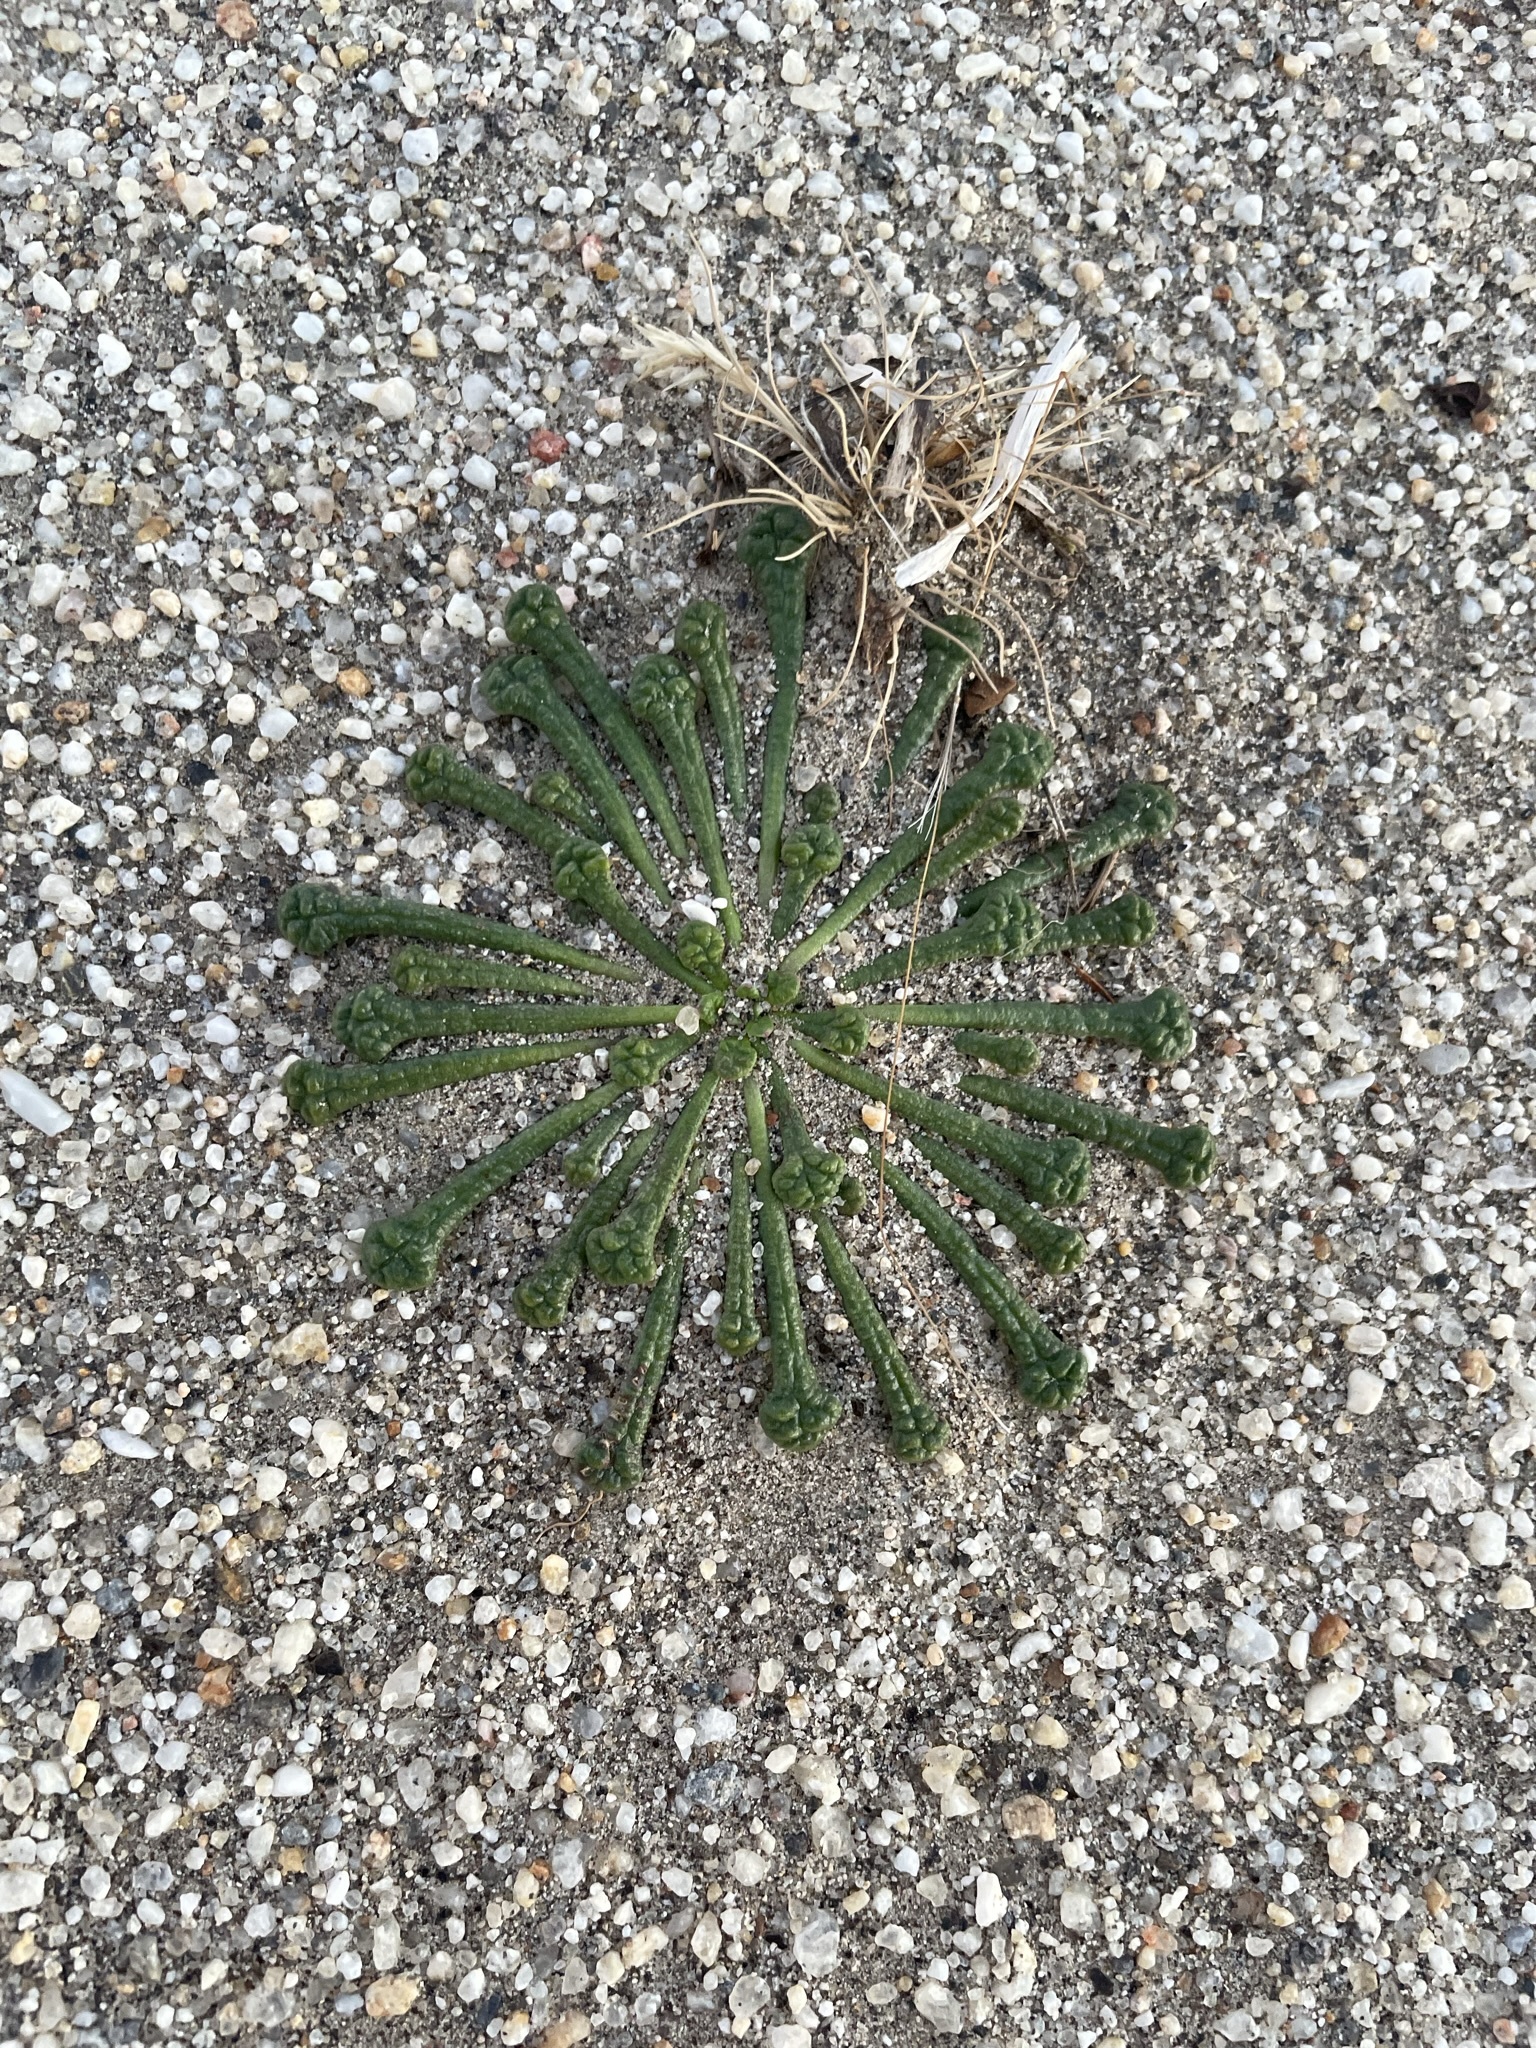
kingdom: Plantae
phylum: Tracheophyta
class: Magnoliopsida
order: Caryophyllales
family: Montiaceae
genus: Calyptridium
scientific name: Calyptridium monandrum
